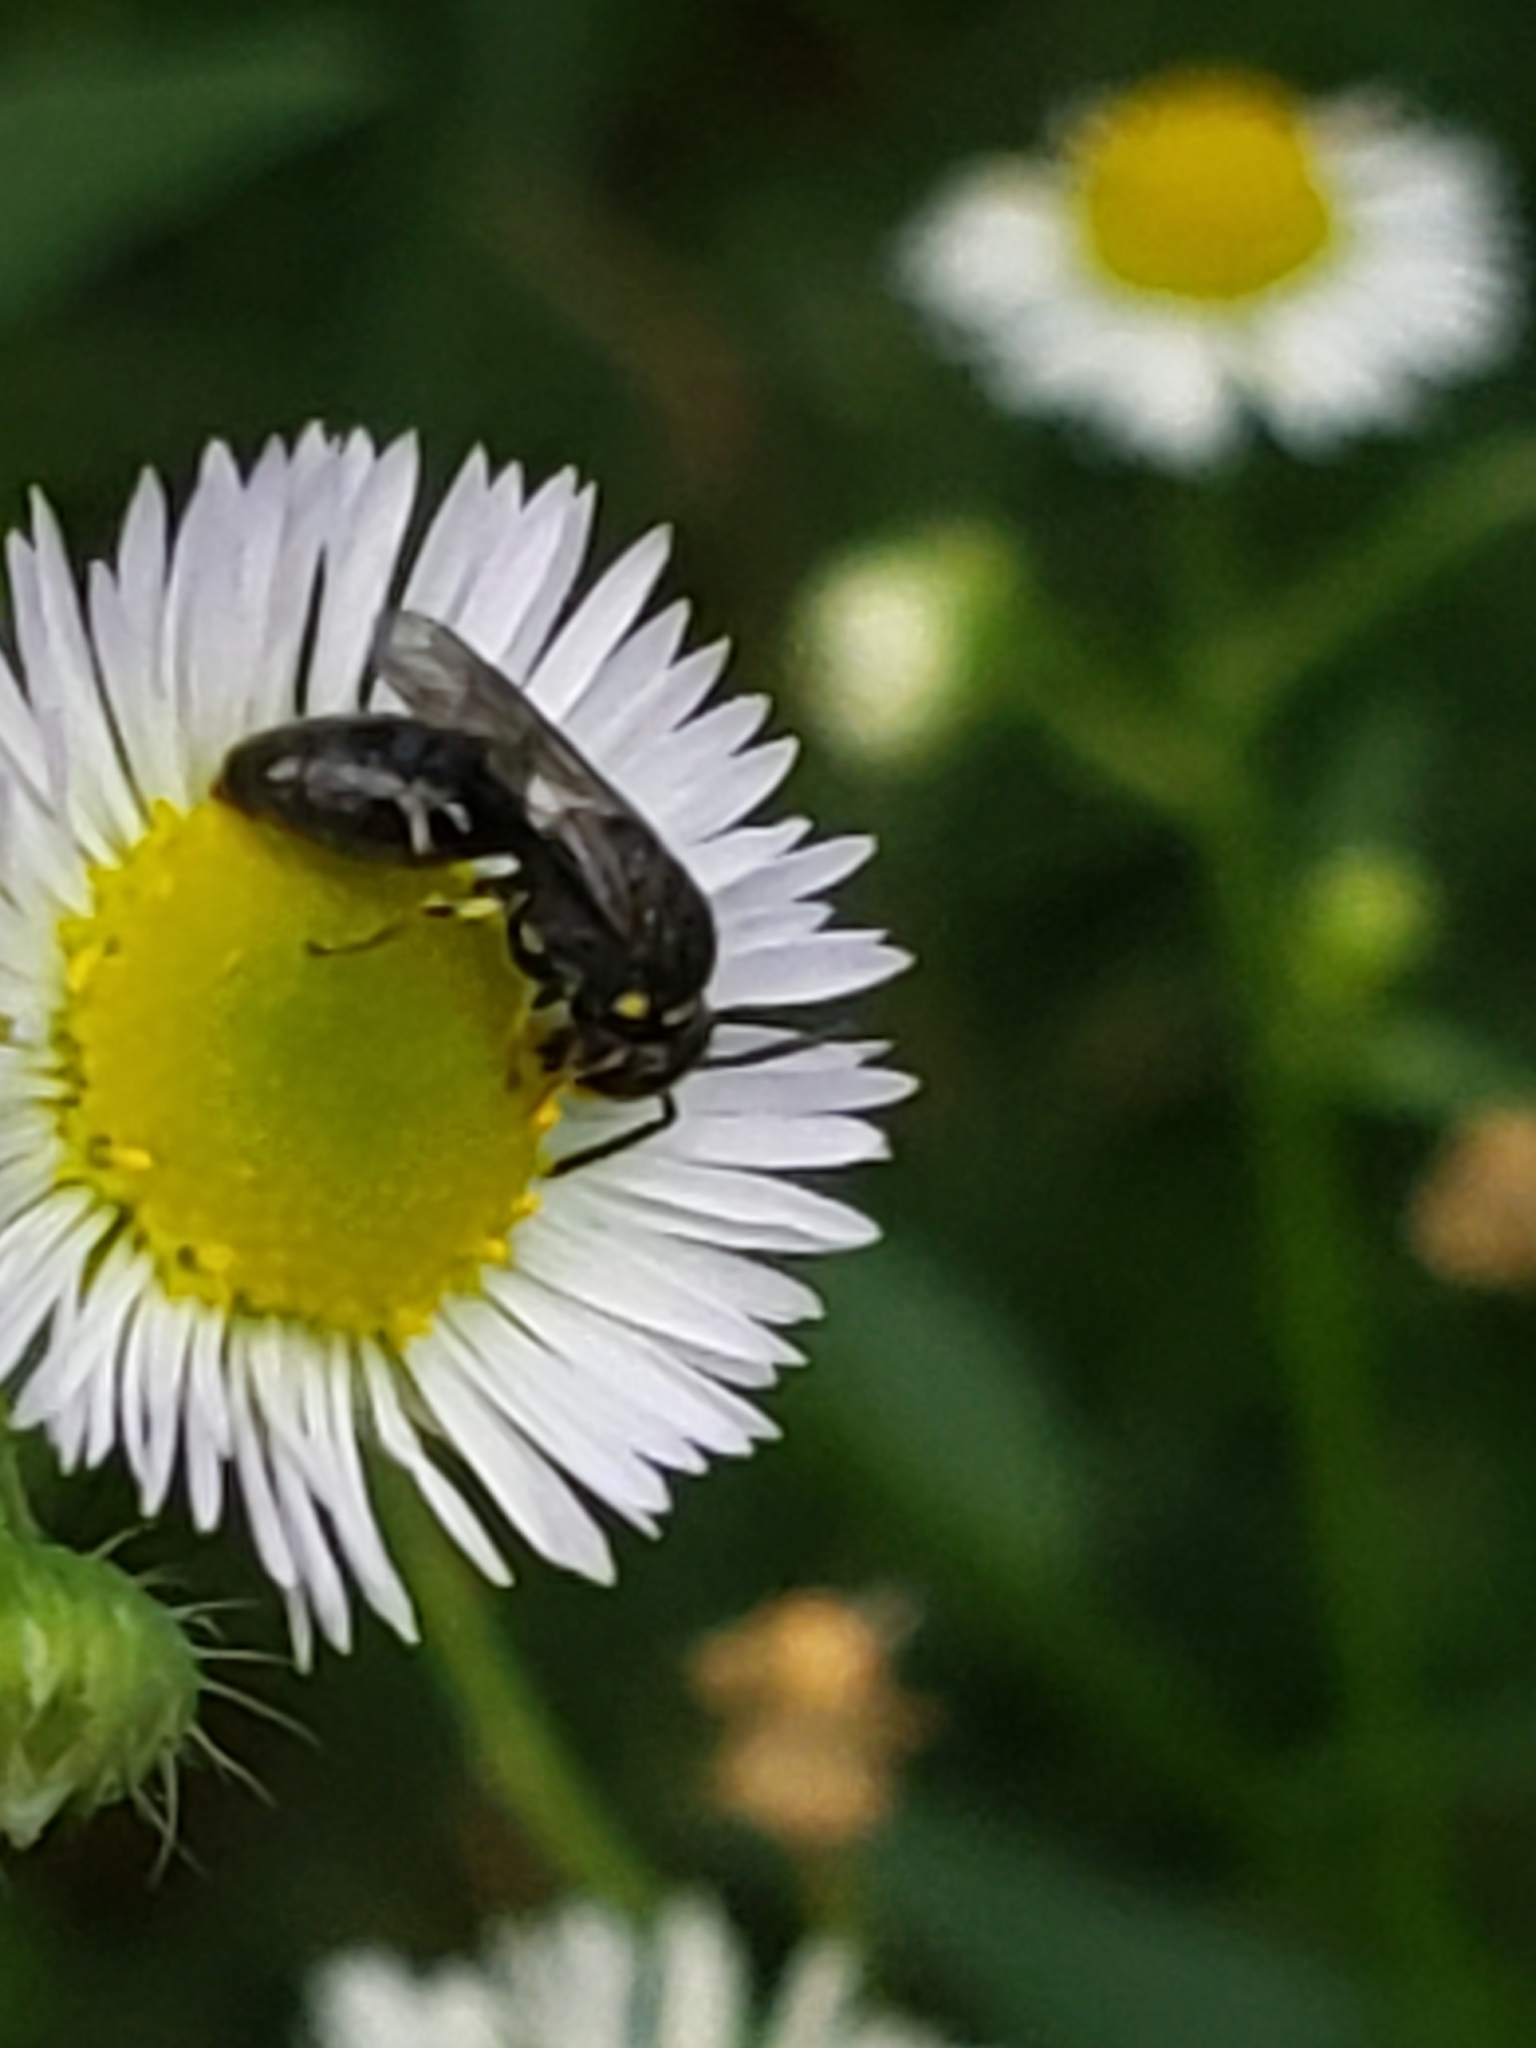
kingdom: Animalia
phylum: Arthropoda
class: Insecta
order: Hymenoptera
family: Colletidae
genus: Hylaeus
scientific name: Hylaeus modestus
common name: Yellow-faced bee
